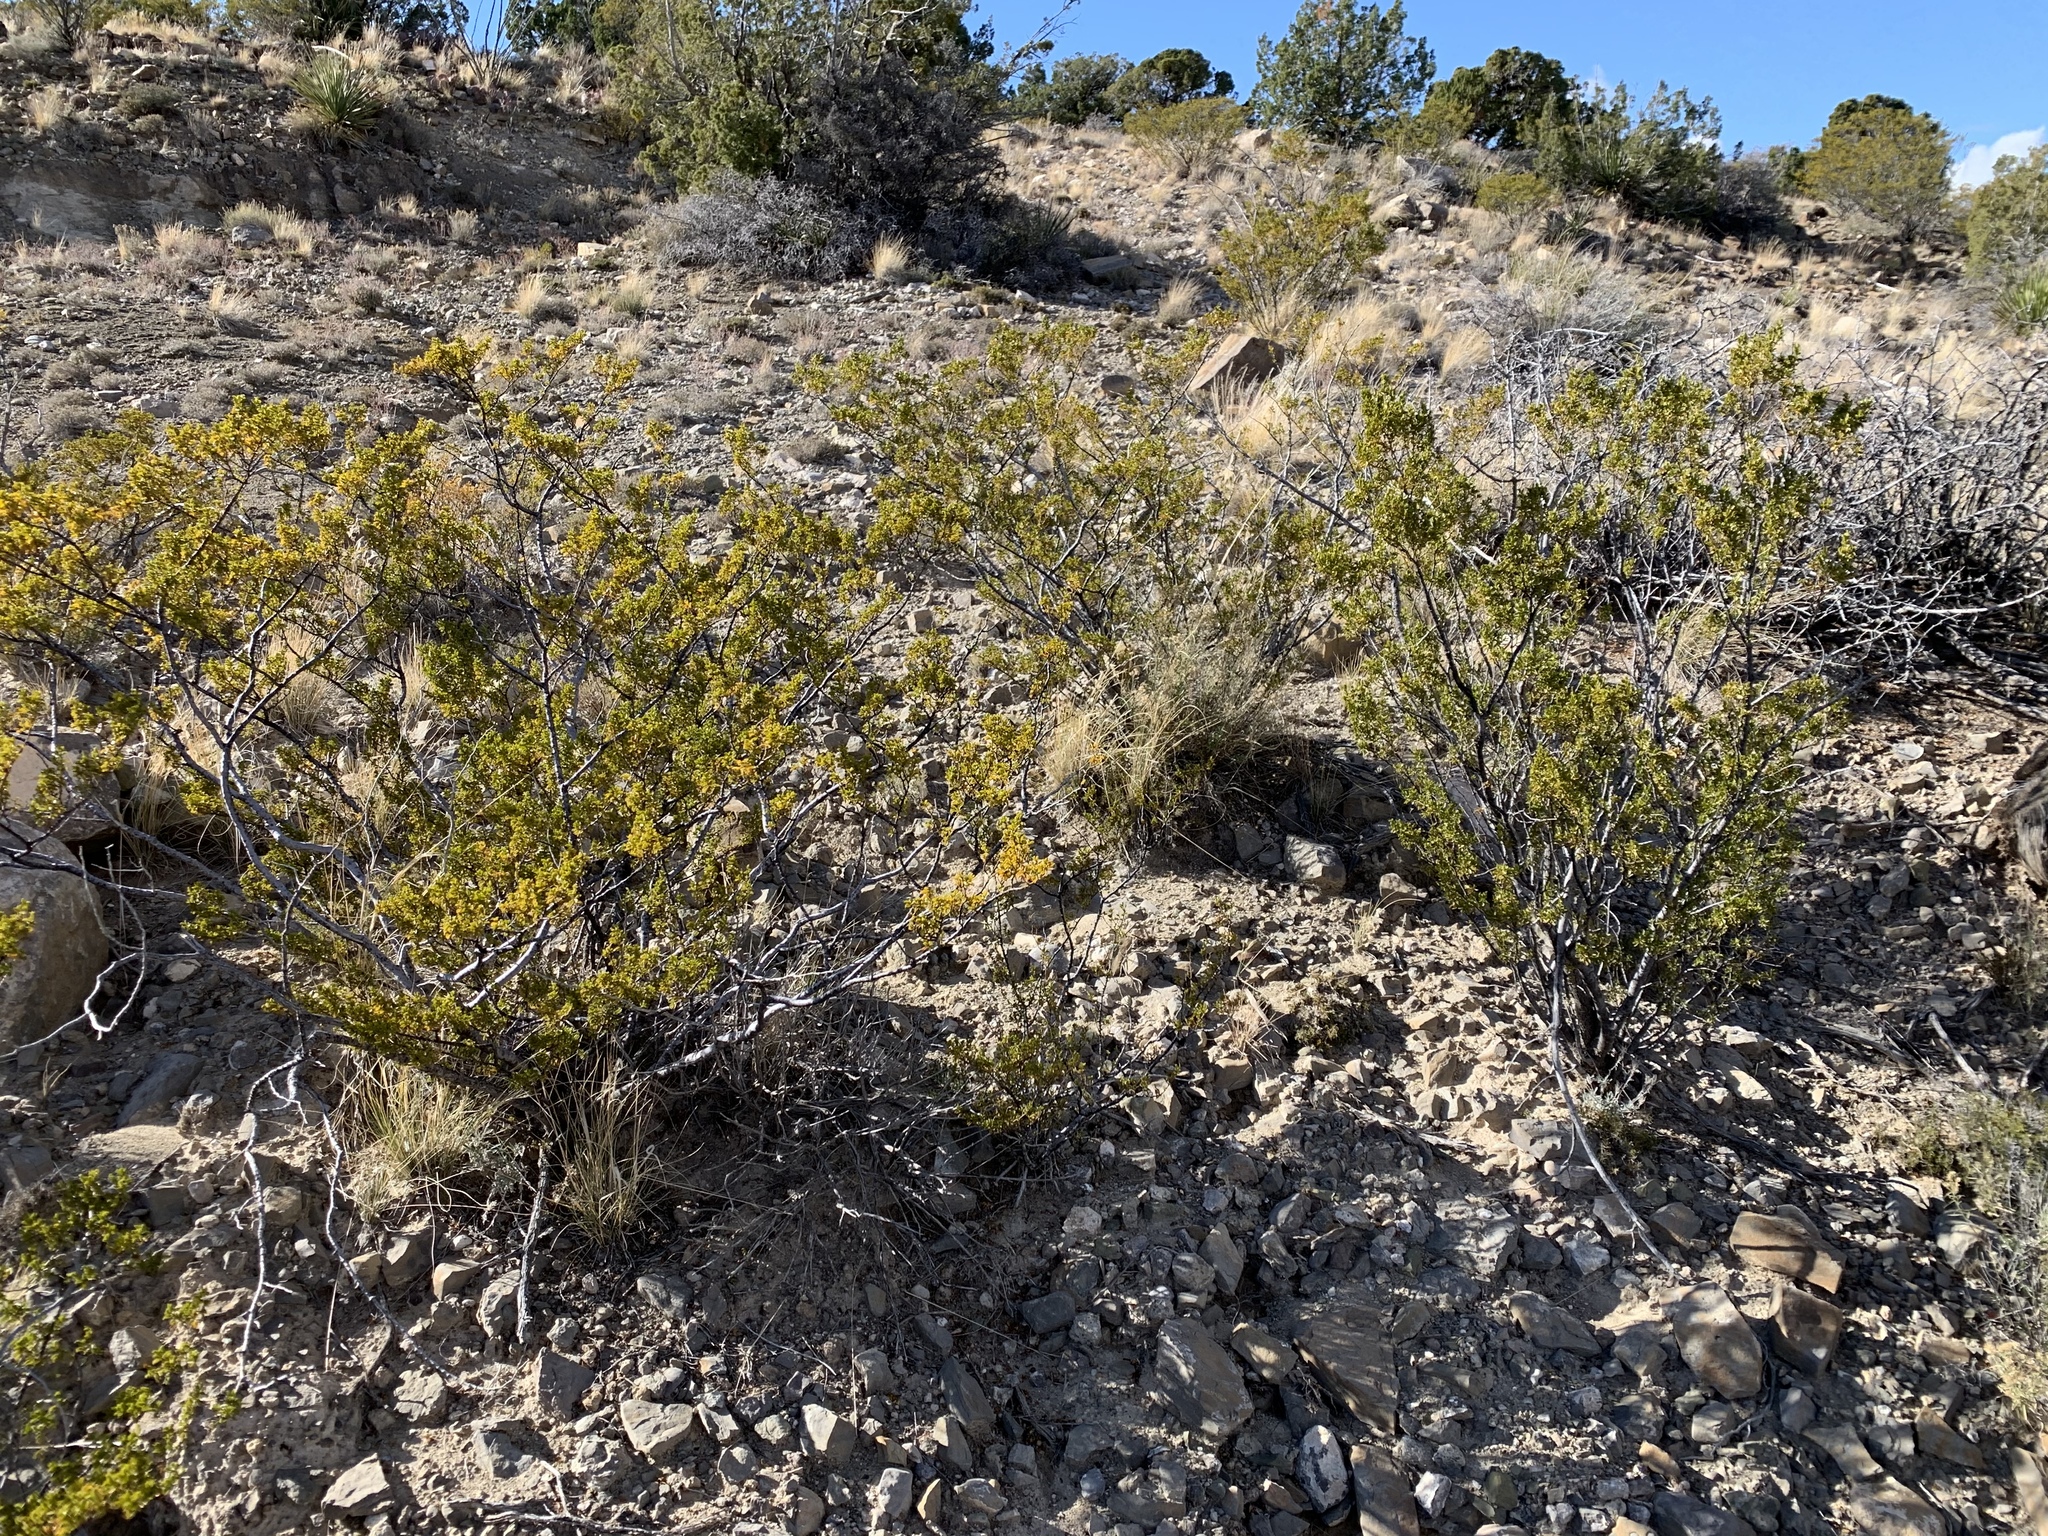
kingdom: Plantae
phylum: Tracheophyta
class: Magnoliopsida
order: Zygophyllales
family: Zygophyllaceae
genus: Larrea
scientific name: Larrea tridentata
